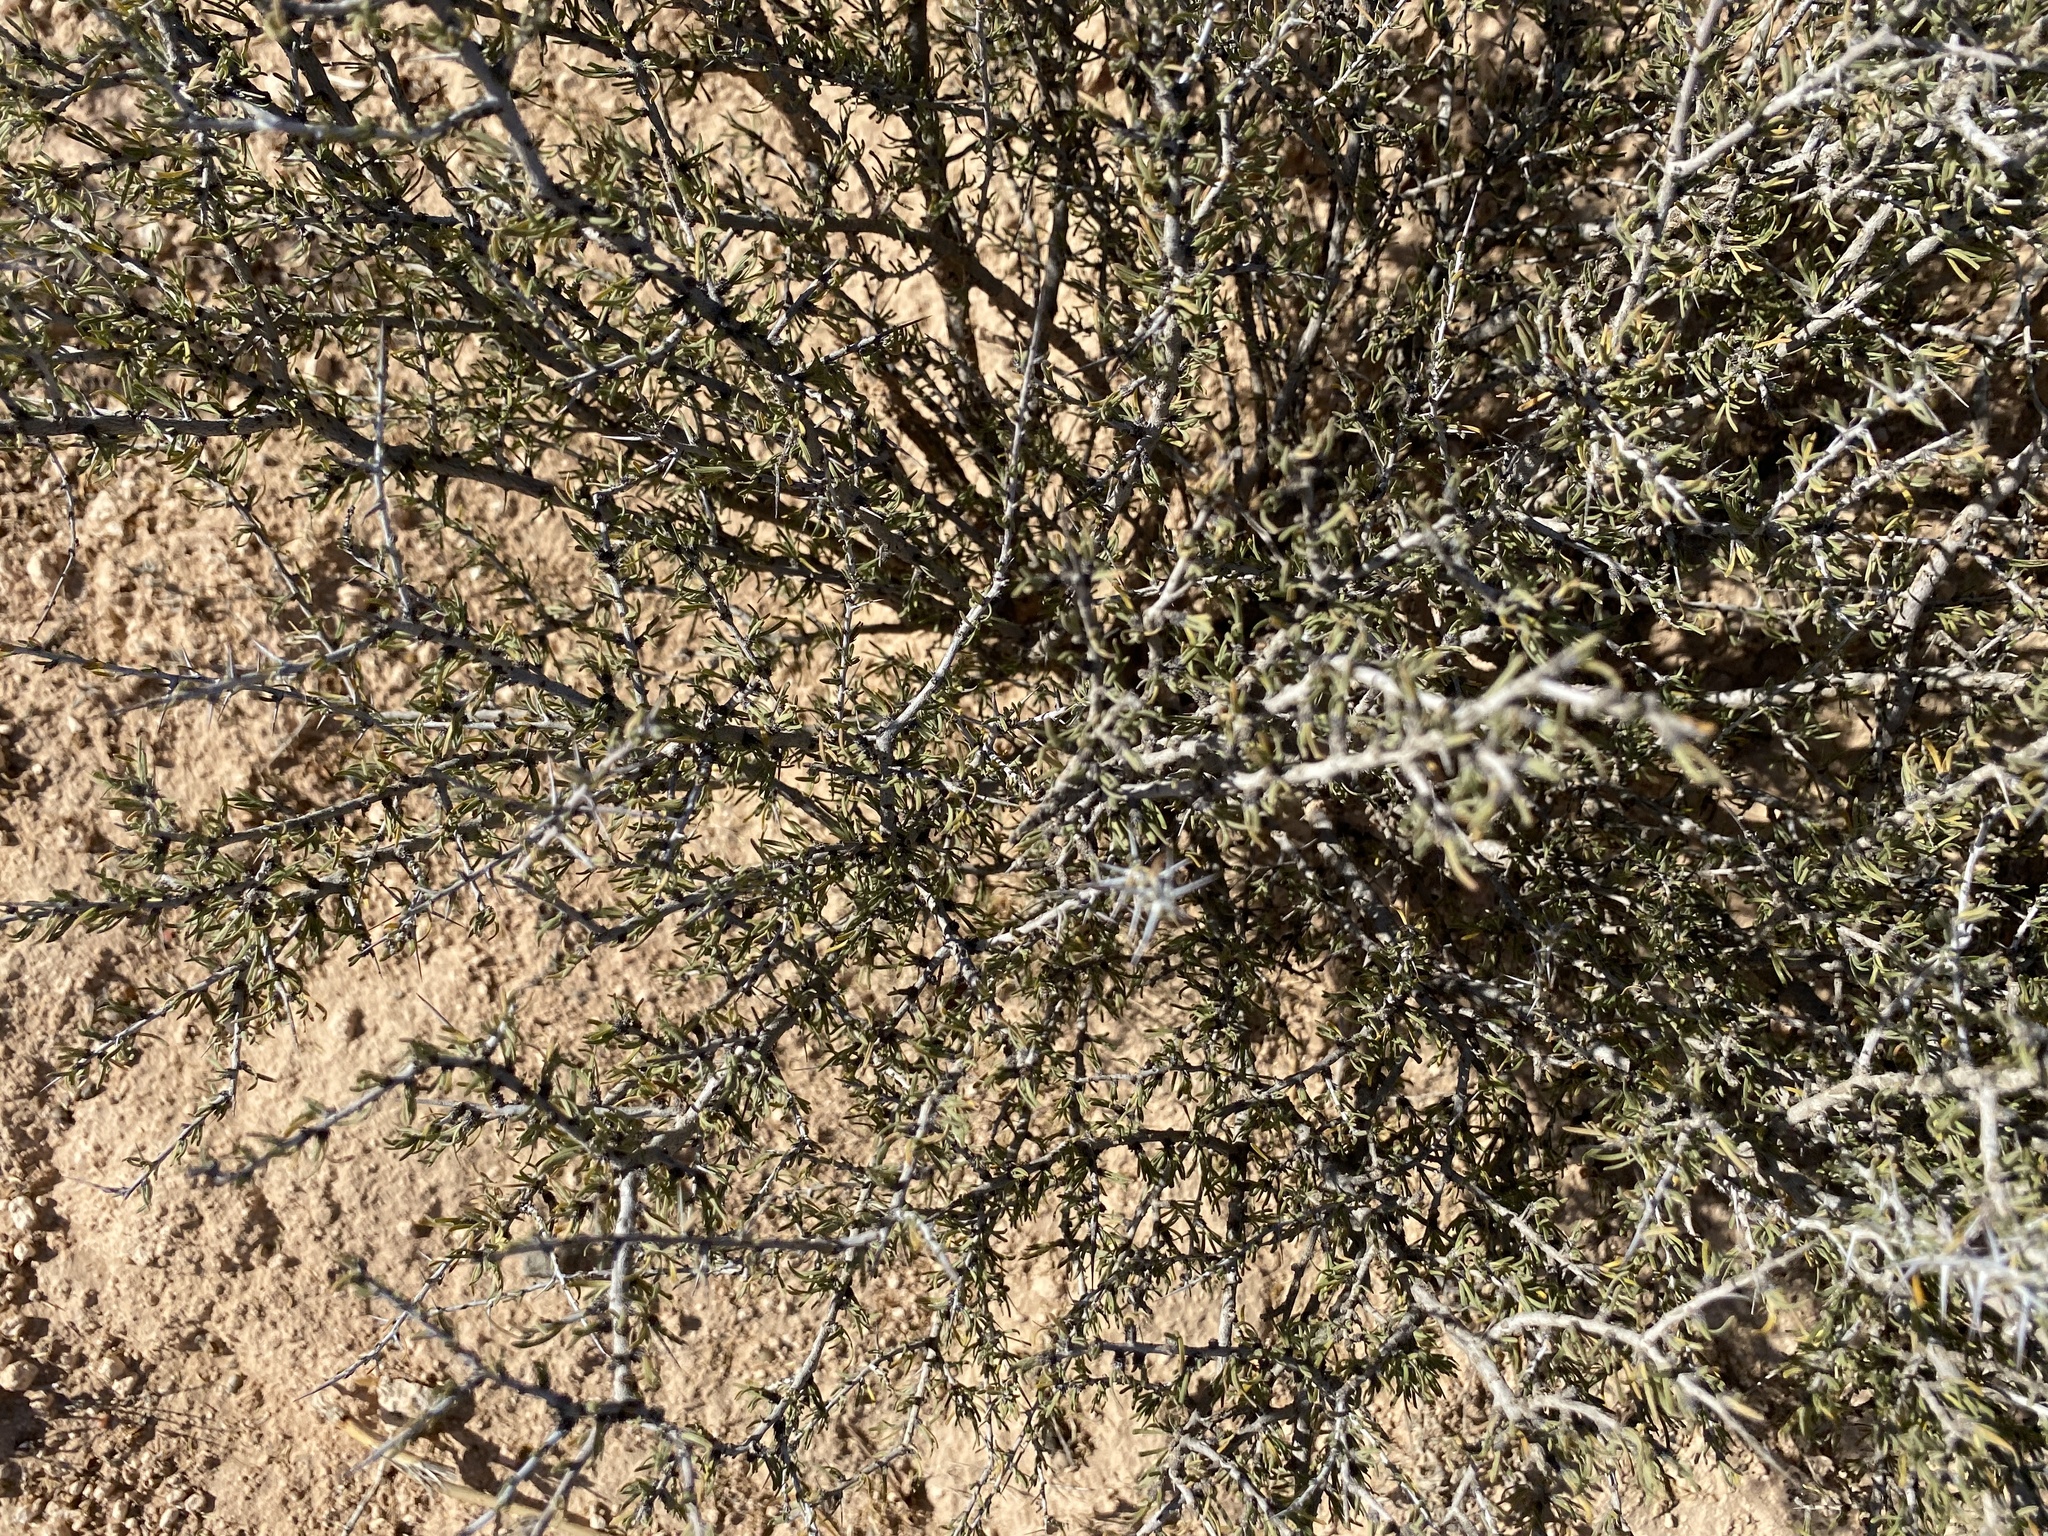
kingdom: Plantae
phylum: Tracheophyta
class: Magnoliopsida
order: Rosales
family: Rhamnaceae
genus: Condalia
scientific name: Condalia ericoides
